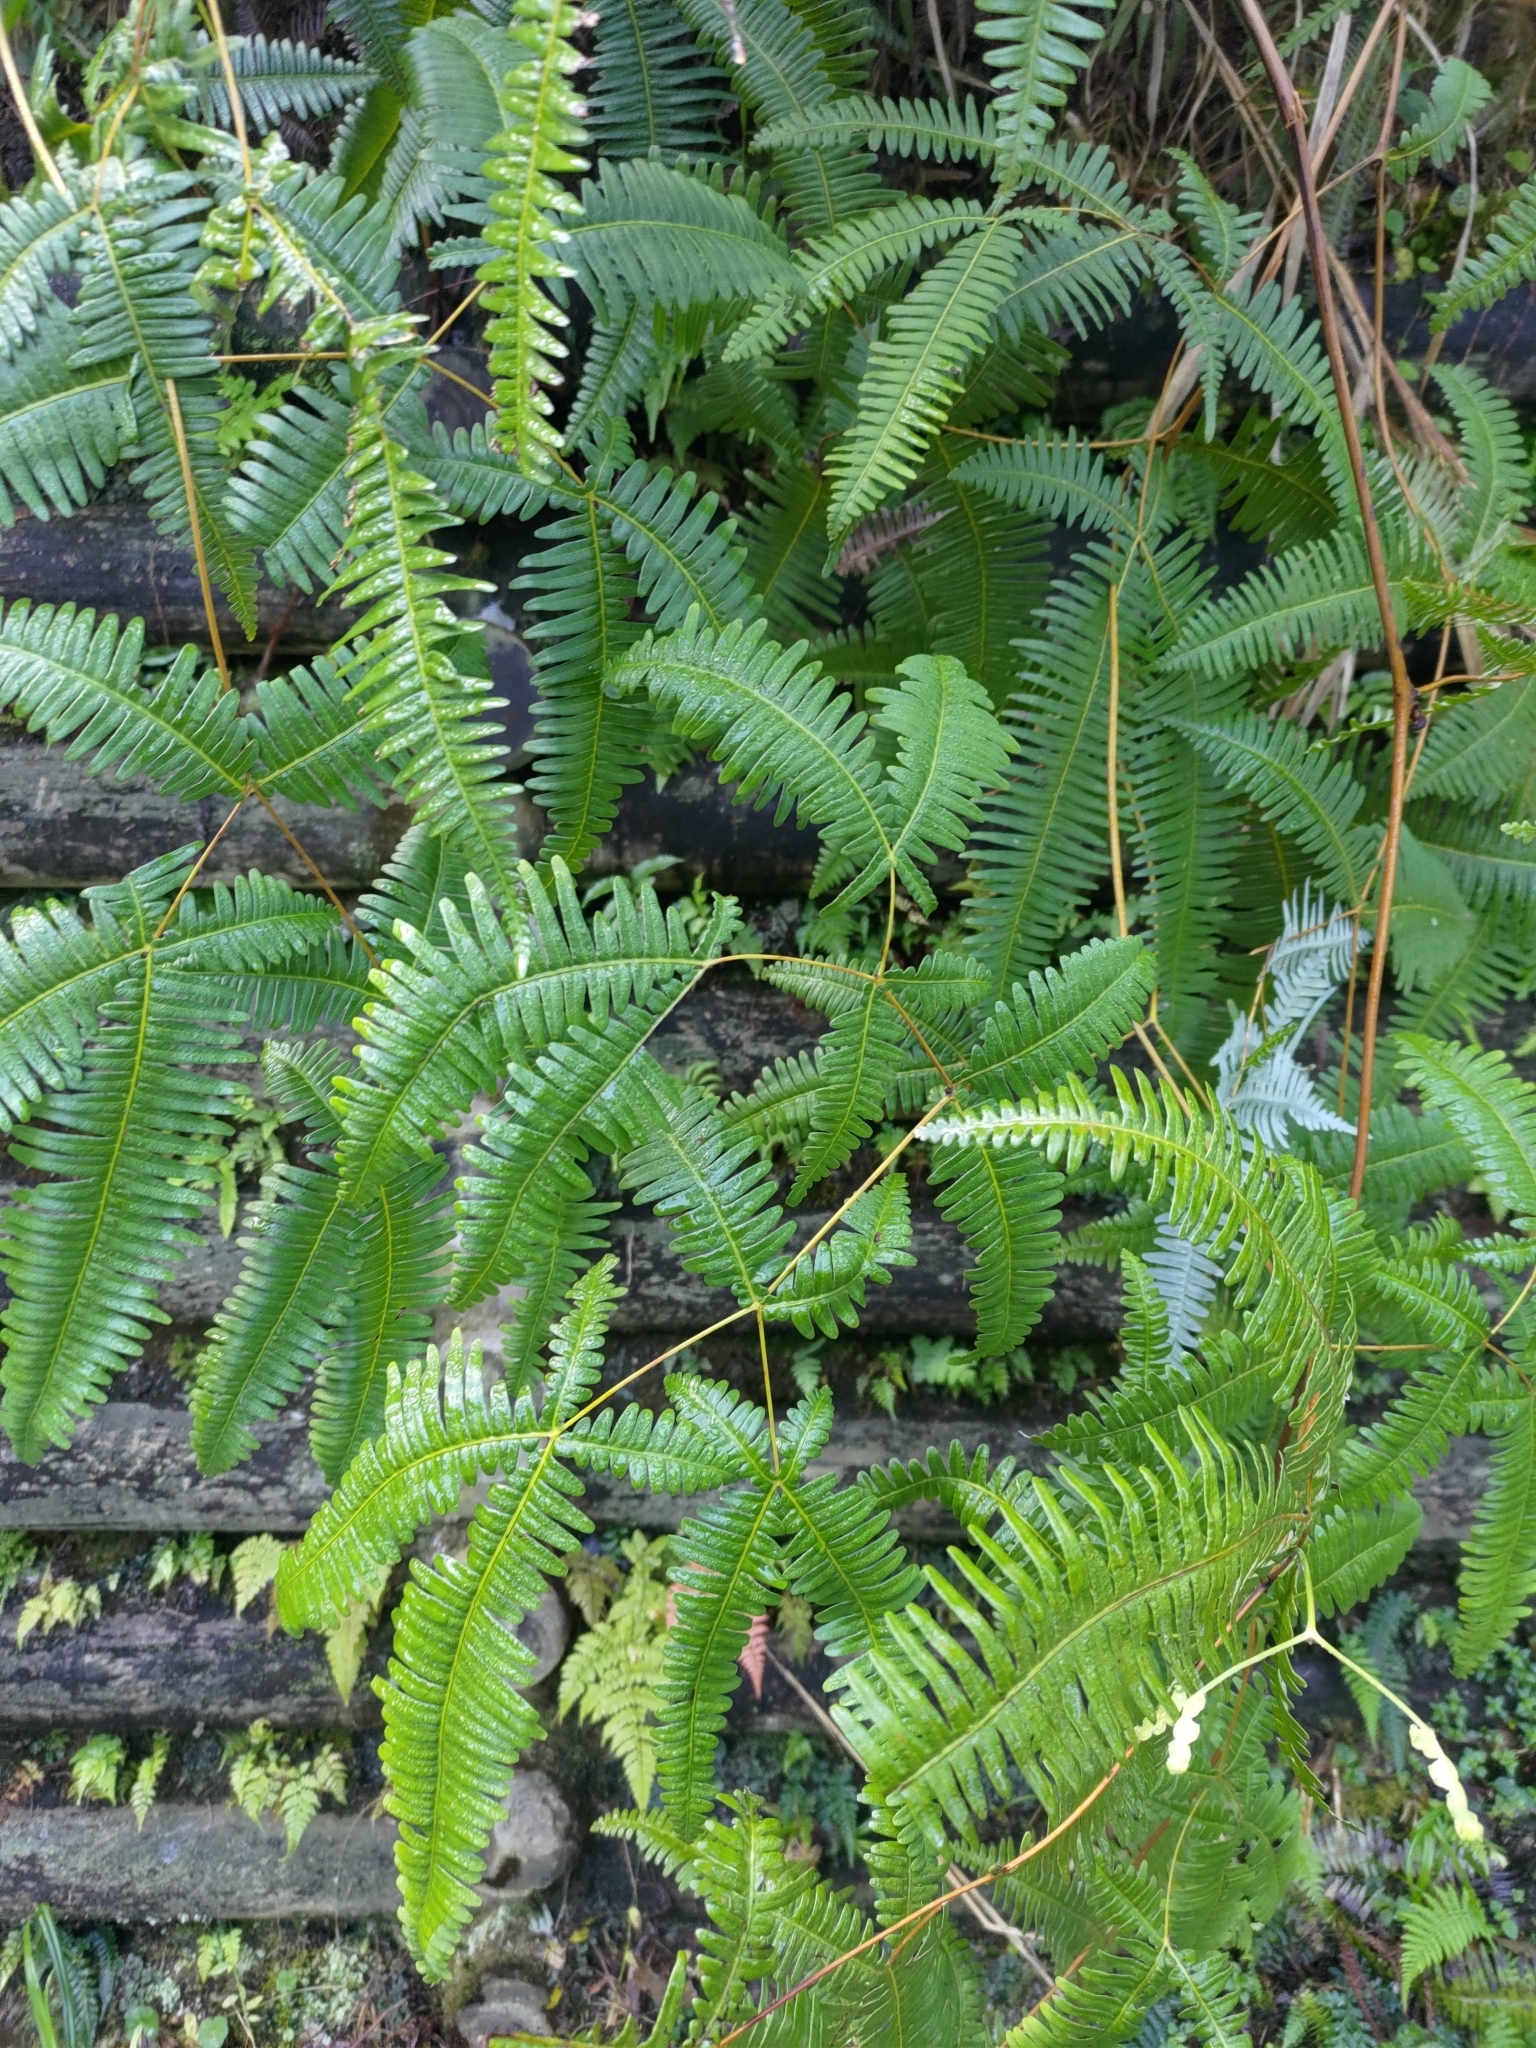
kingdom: Plantae
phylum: Tracheophyta
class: Polypodiopsida
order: Gleicheniales
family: Gleicheniaceae
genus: Dicranopteris
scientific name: Dicranopteris linearis
